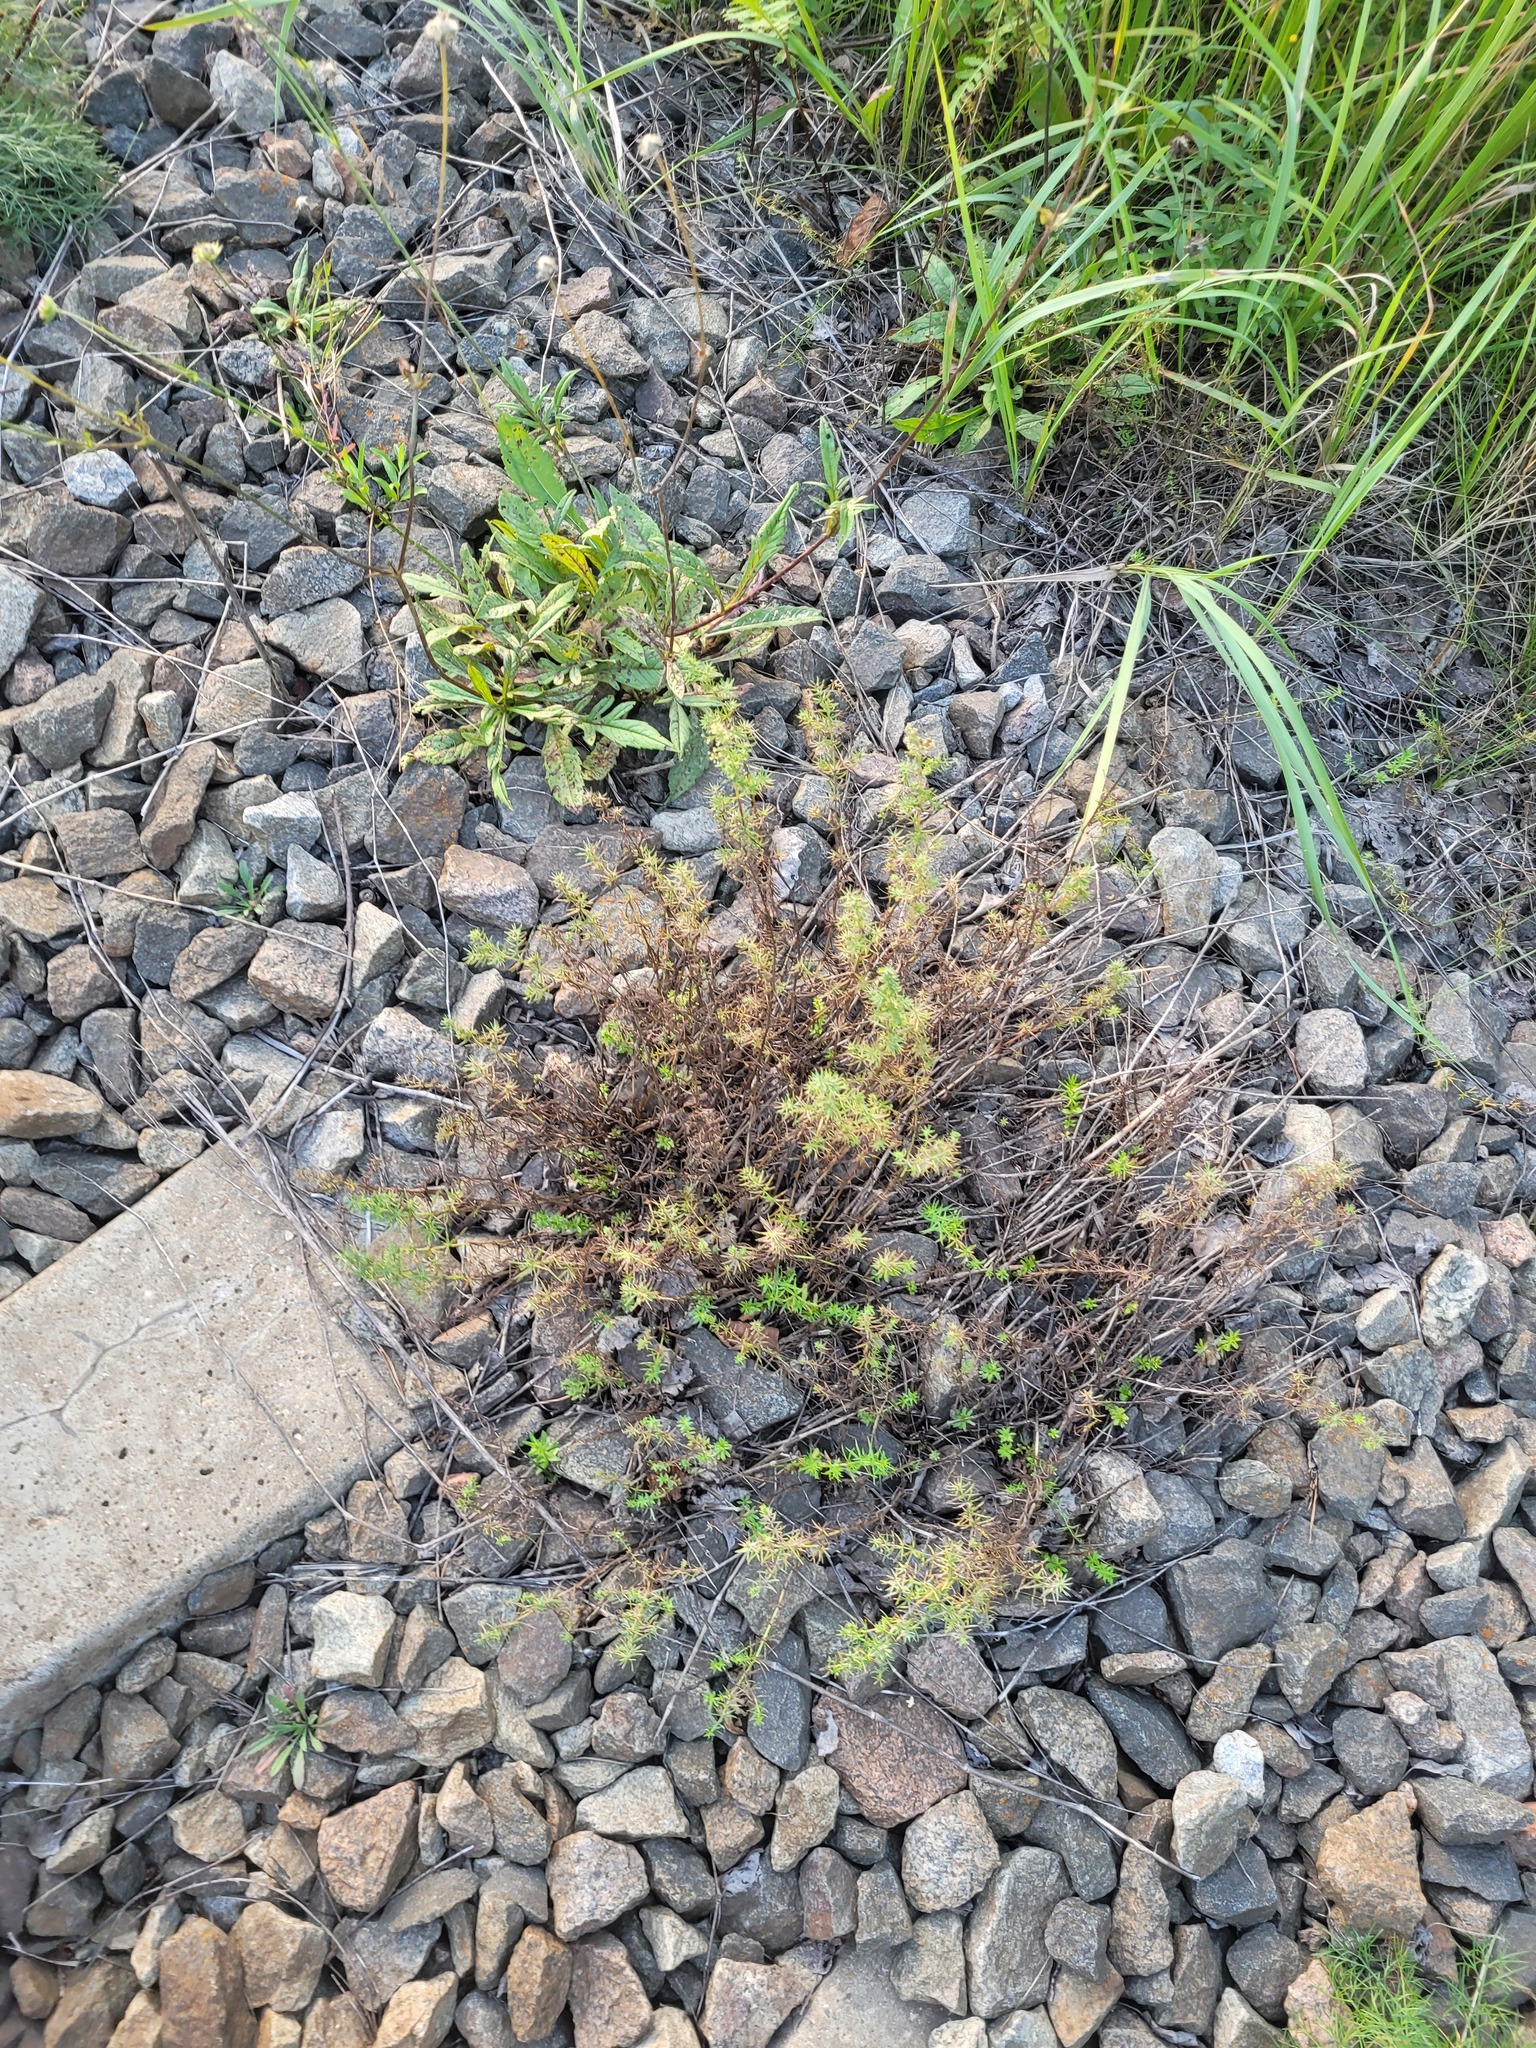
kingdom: Plantae
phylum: Tracheophyta
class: Magnoliopsida
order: Gentianales
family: Rubiaceae
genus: Galium
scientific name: Galium mollugo
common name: Hedge bedstraw
